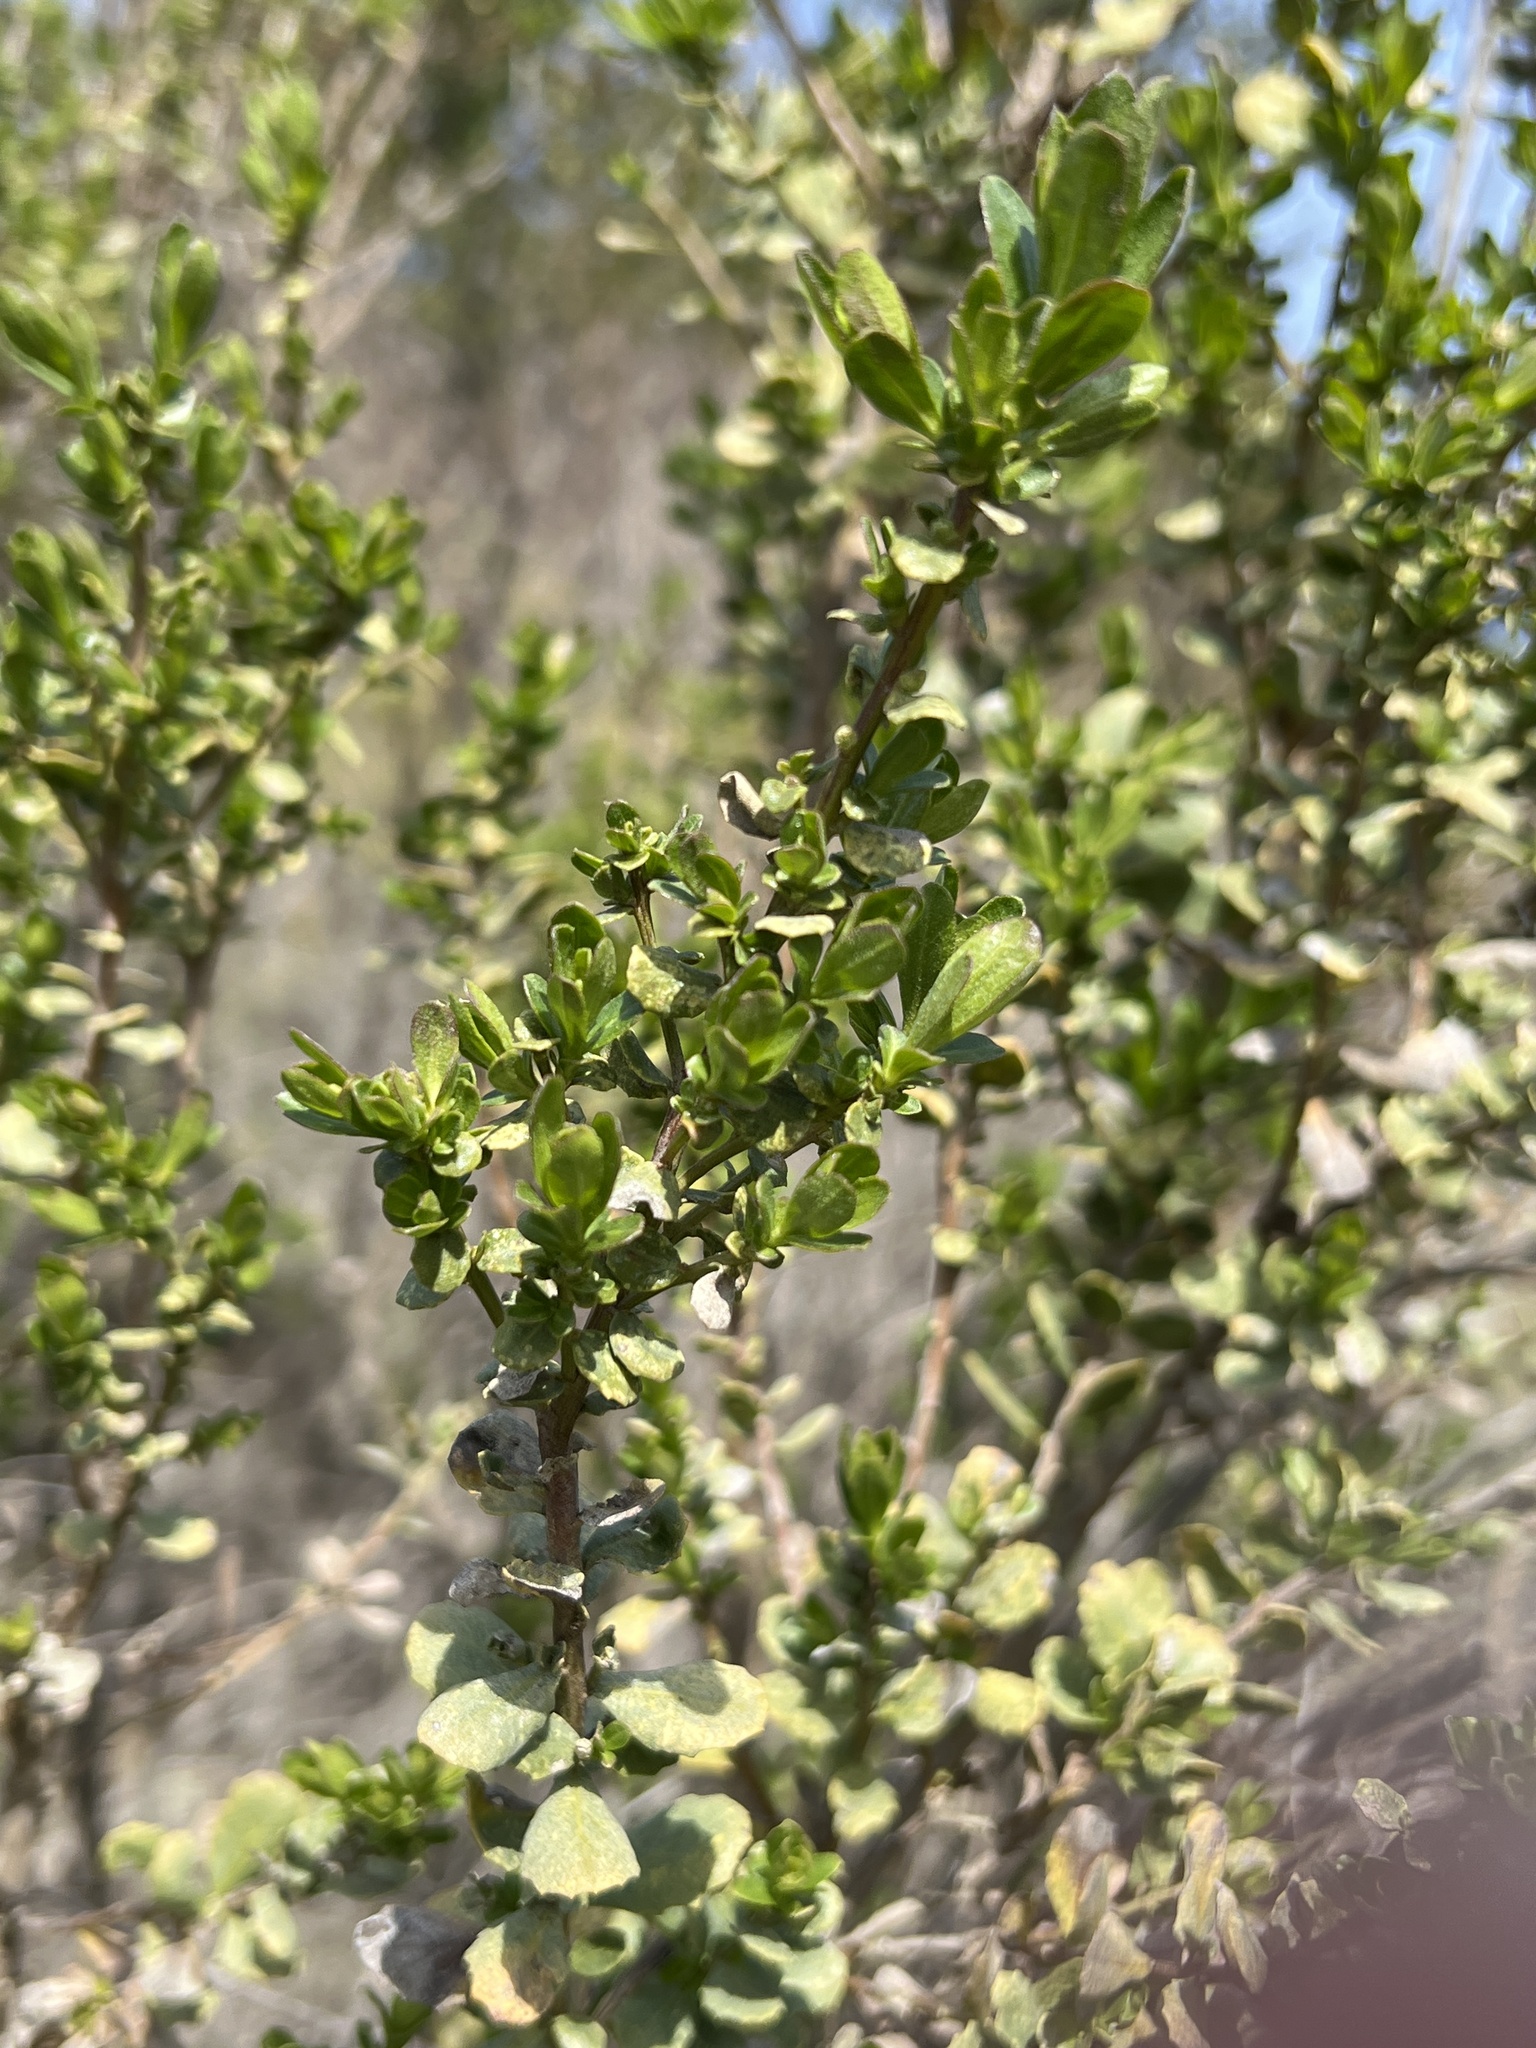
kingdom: Plantae
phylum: Tracheophyta
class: Magnoliopsida
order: Asterales
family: Asteraceae
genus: Baccharis
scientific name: Baccharis pilularis
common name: Coyotebrush
